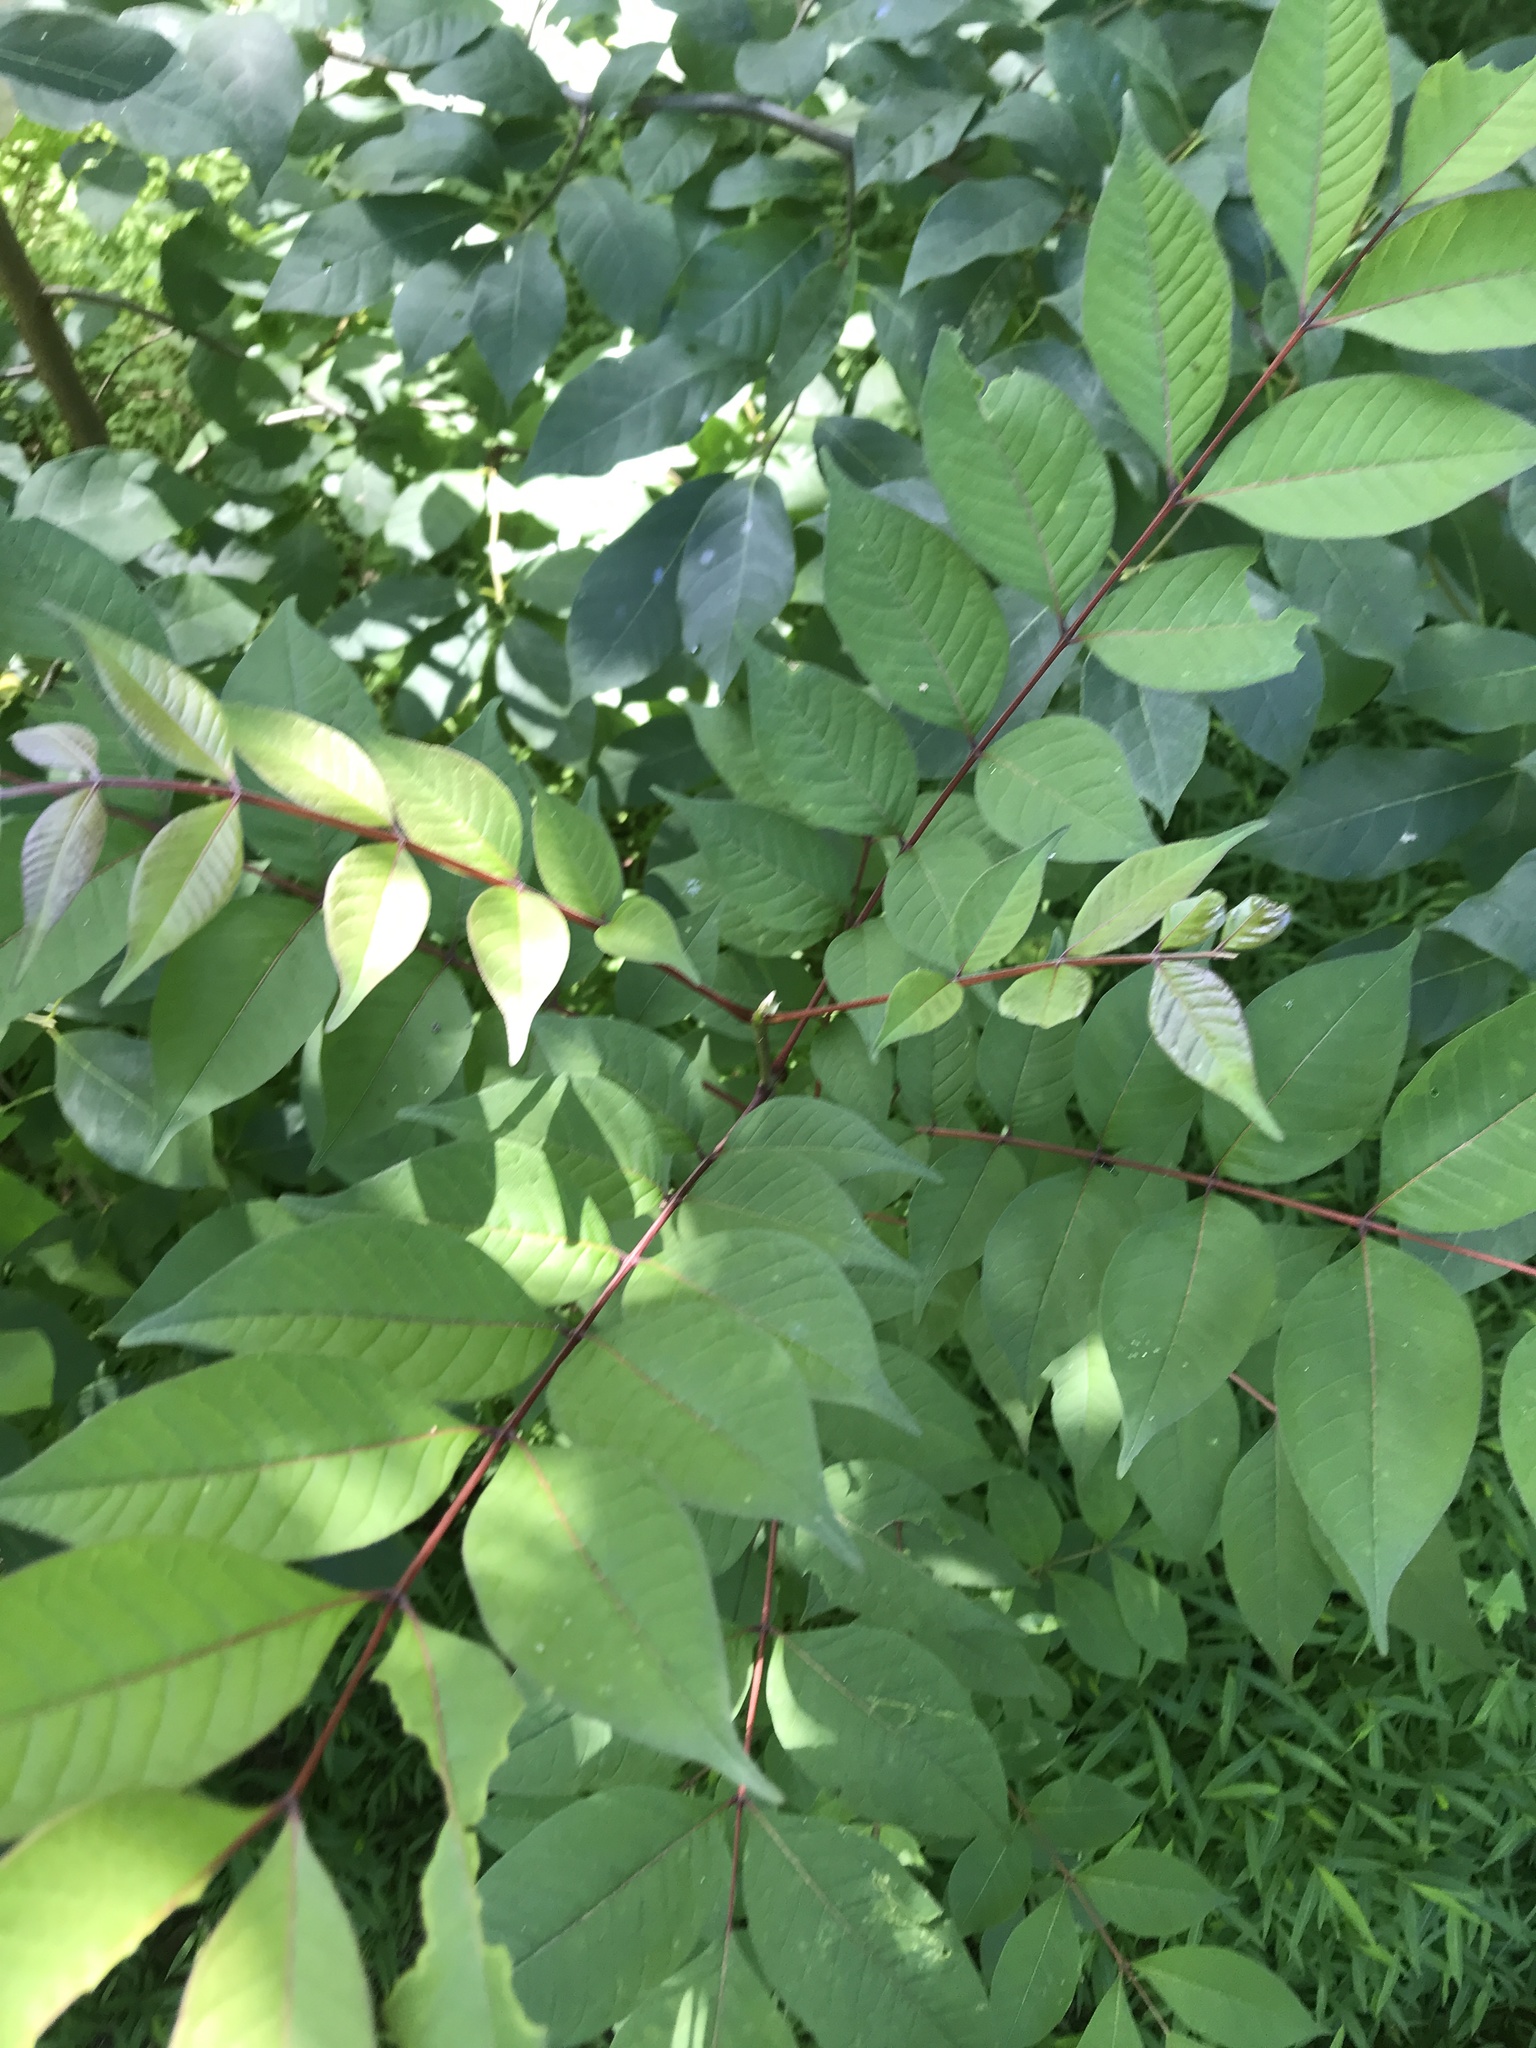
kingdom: Plantae
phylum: Tracheophyta
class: Magnoliopsida
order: Sapindales
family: Rutaceae
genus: Phellodendron
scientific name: Phellodendron amurense
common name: Amur corktree
